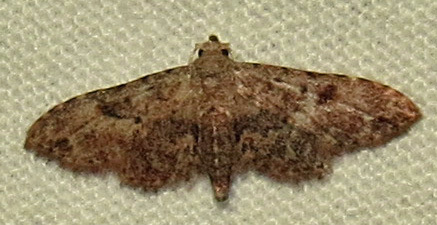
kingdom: Animalia
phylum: Arthropoda
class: Insecta
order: Lepidoptera
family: Erebidae
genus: Sigela
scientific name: Sigela brauneata
